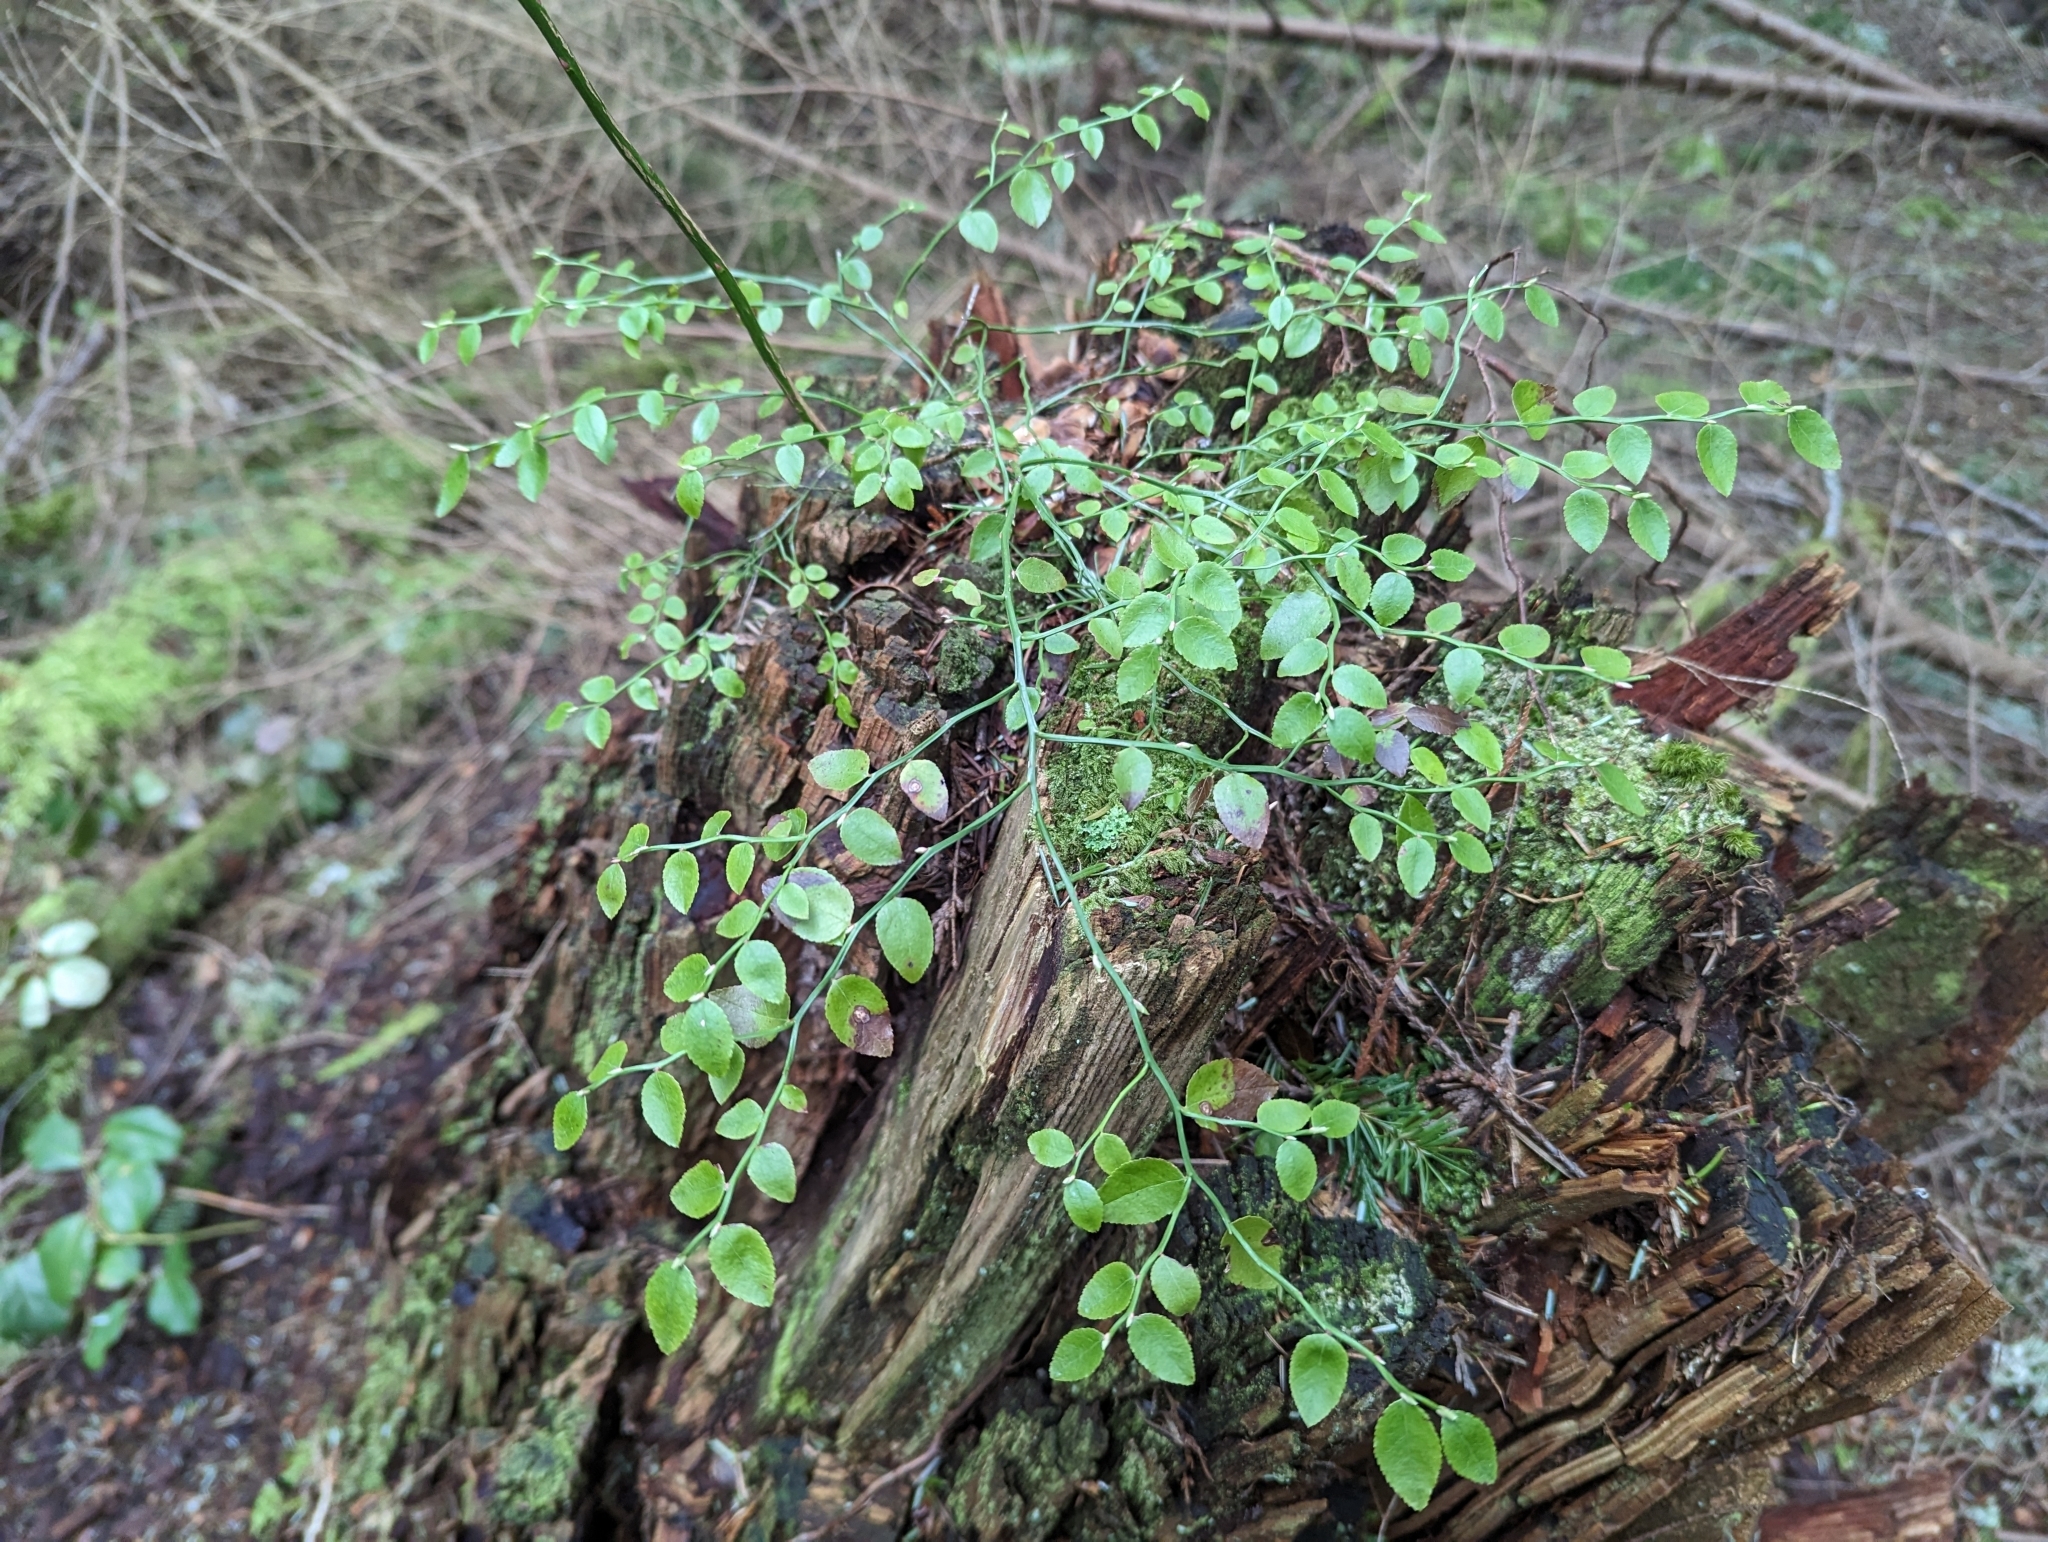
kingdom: Plantae
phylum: Tracheophyta
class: Magnoliopsida
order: Ericales
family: Ericaceae
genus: Vaccinium
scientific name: Vaccinium parvifolium
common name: Red-huckleberry
